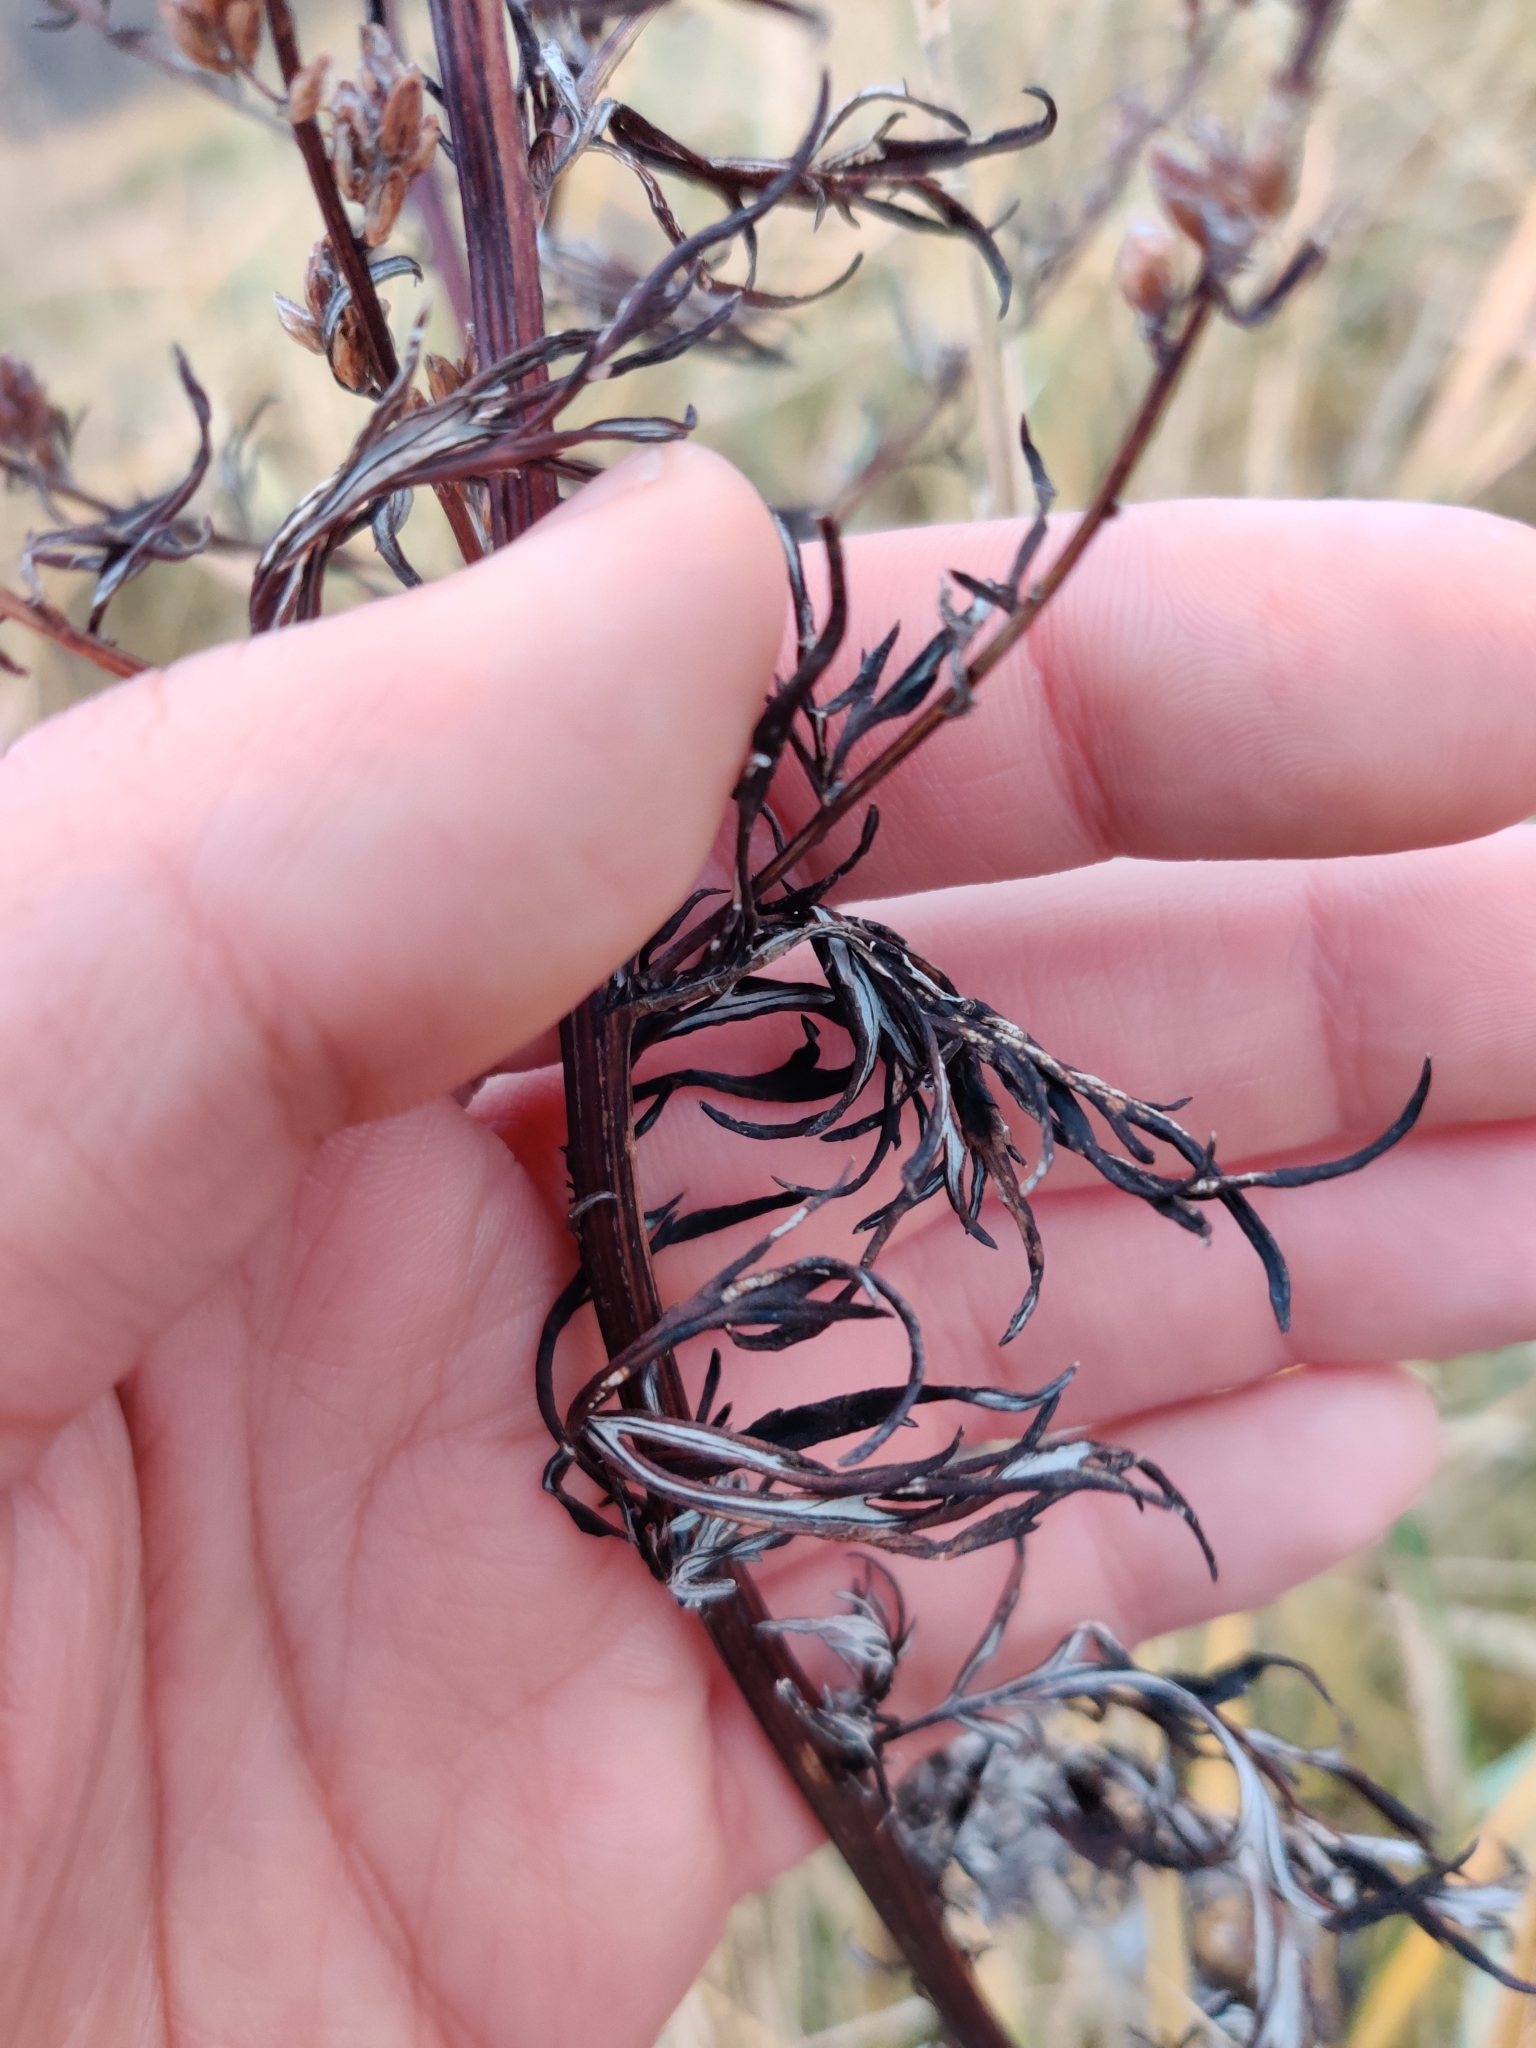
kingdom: Plantae
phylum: Tracheophyta
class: Magnoliopsida
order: Asterales
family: Asteraceae
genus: Artemisia
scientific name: Artemisia vulgaris
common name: Mugwort
